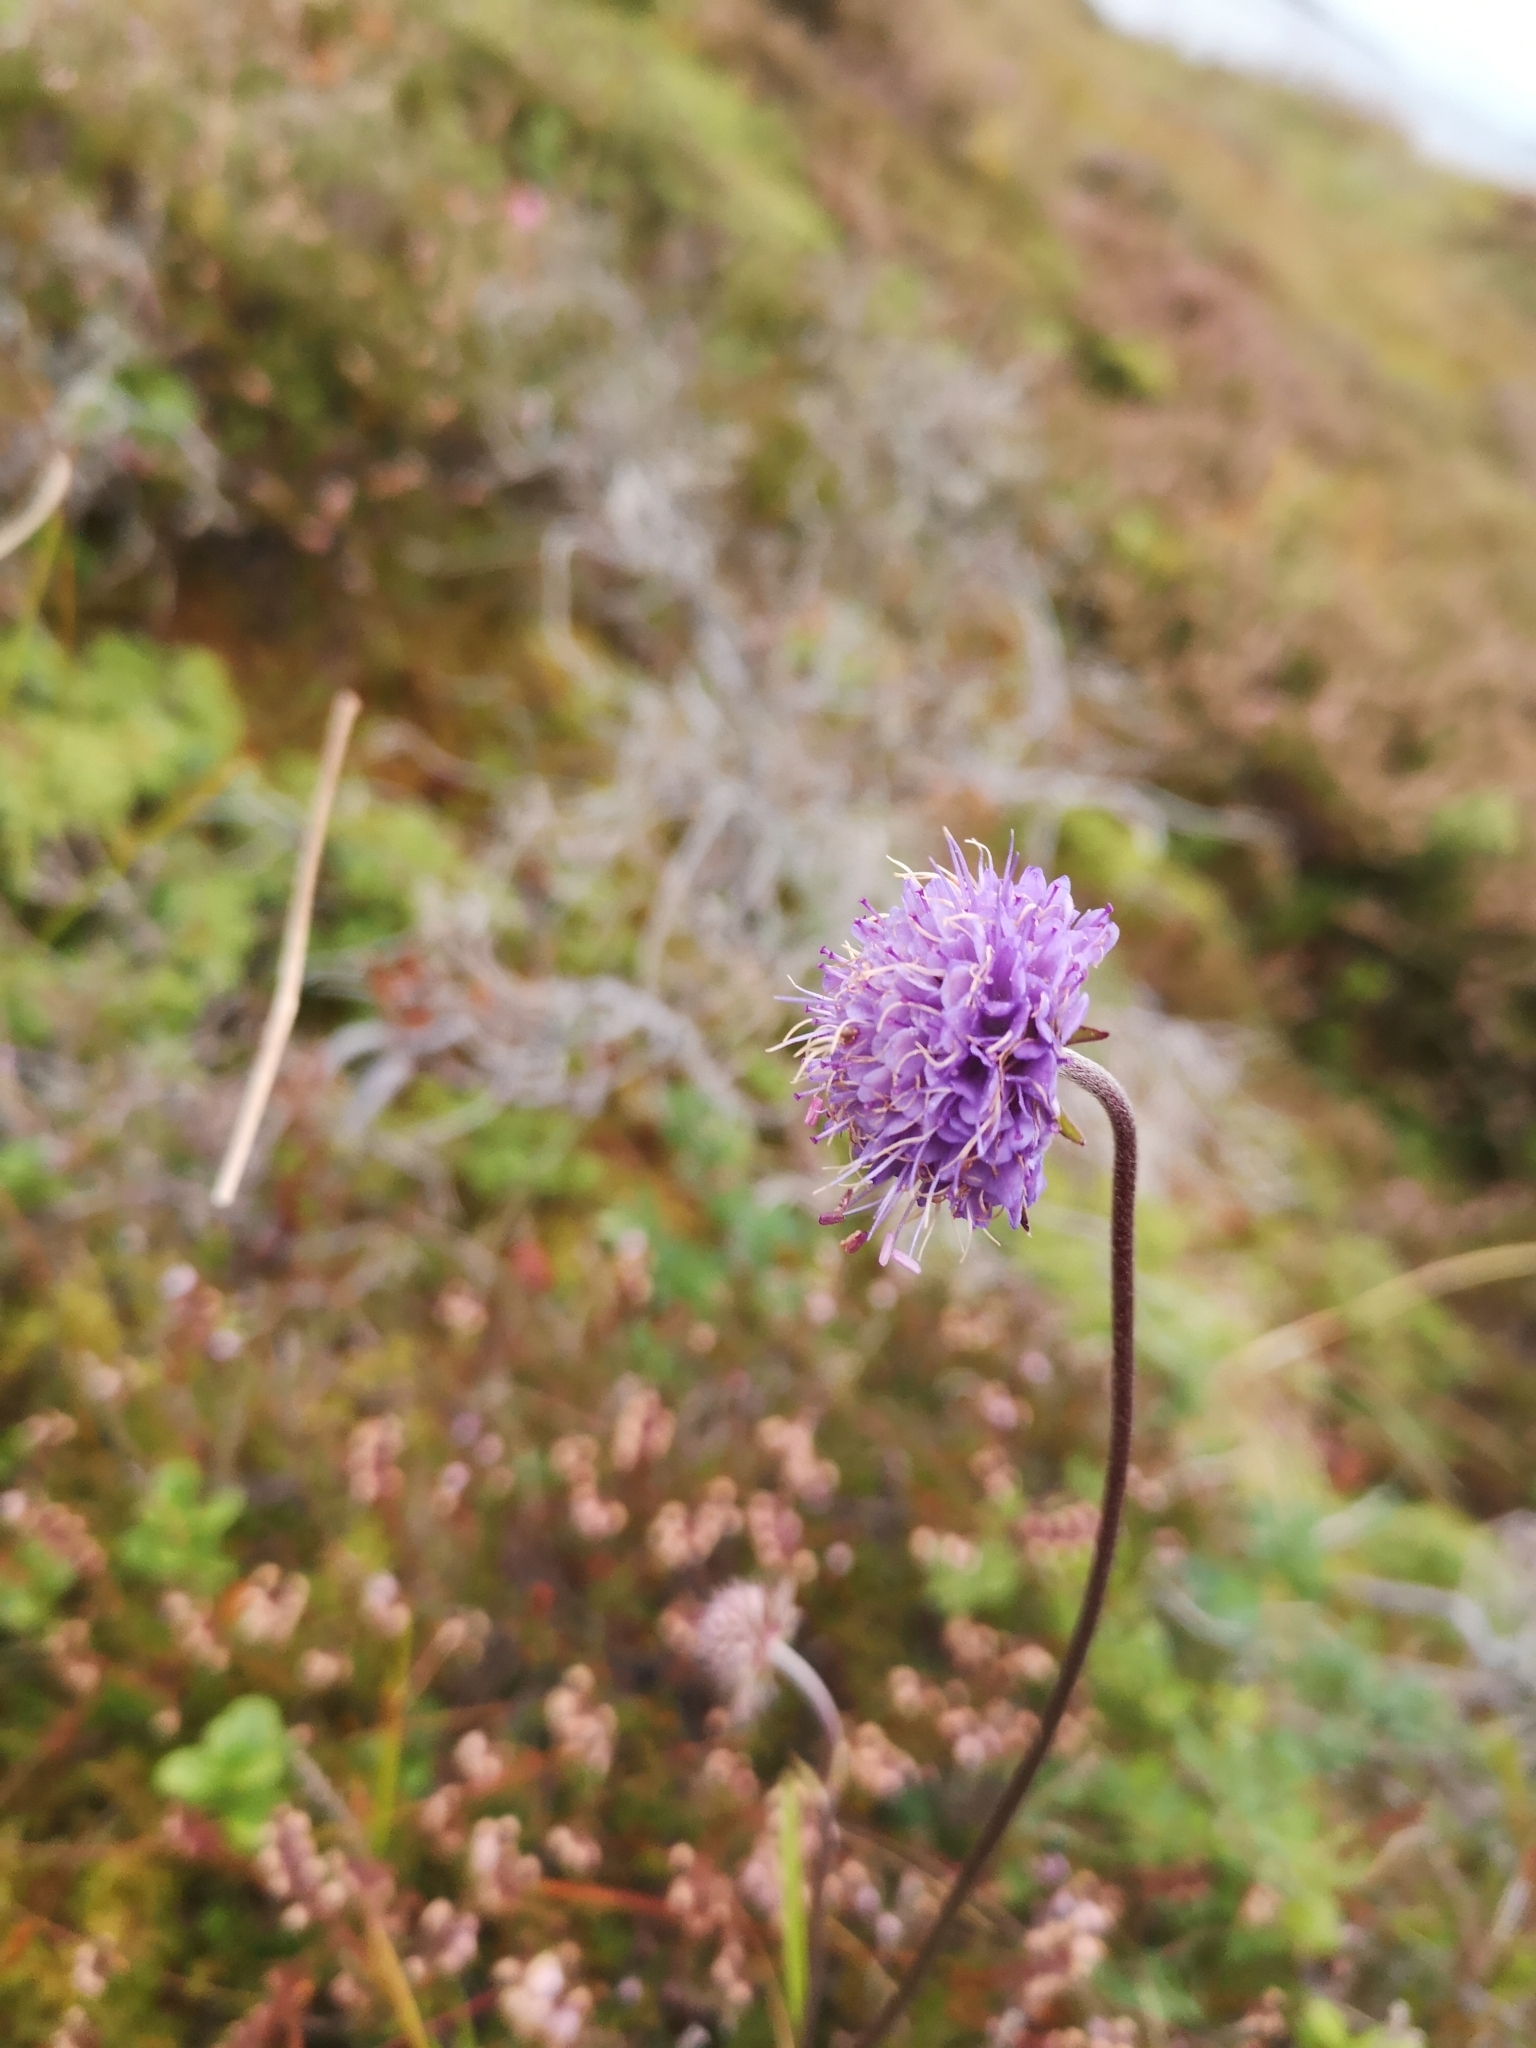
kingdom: Plantae
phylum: Tracheophyta
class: Magnoliopsida
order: Dipsacales
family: Caprifoliaceae
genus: Succisa
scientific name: Succisa pratensis
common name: Devil's-bit
